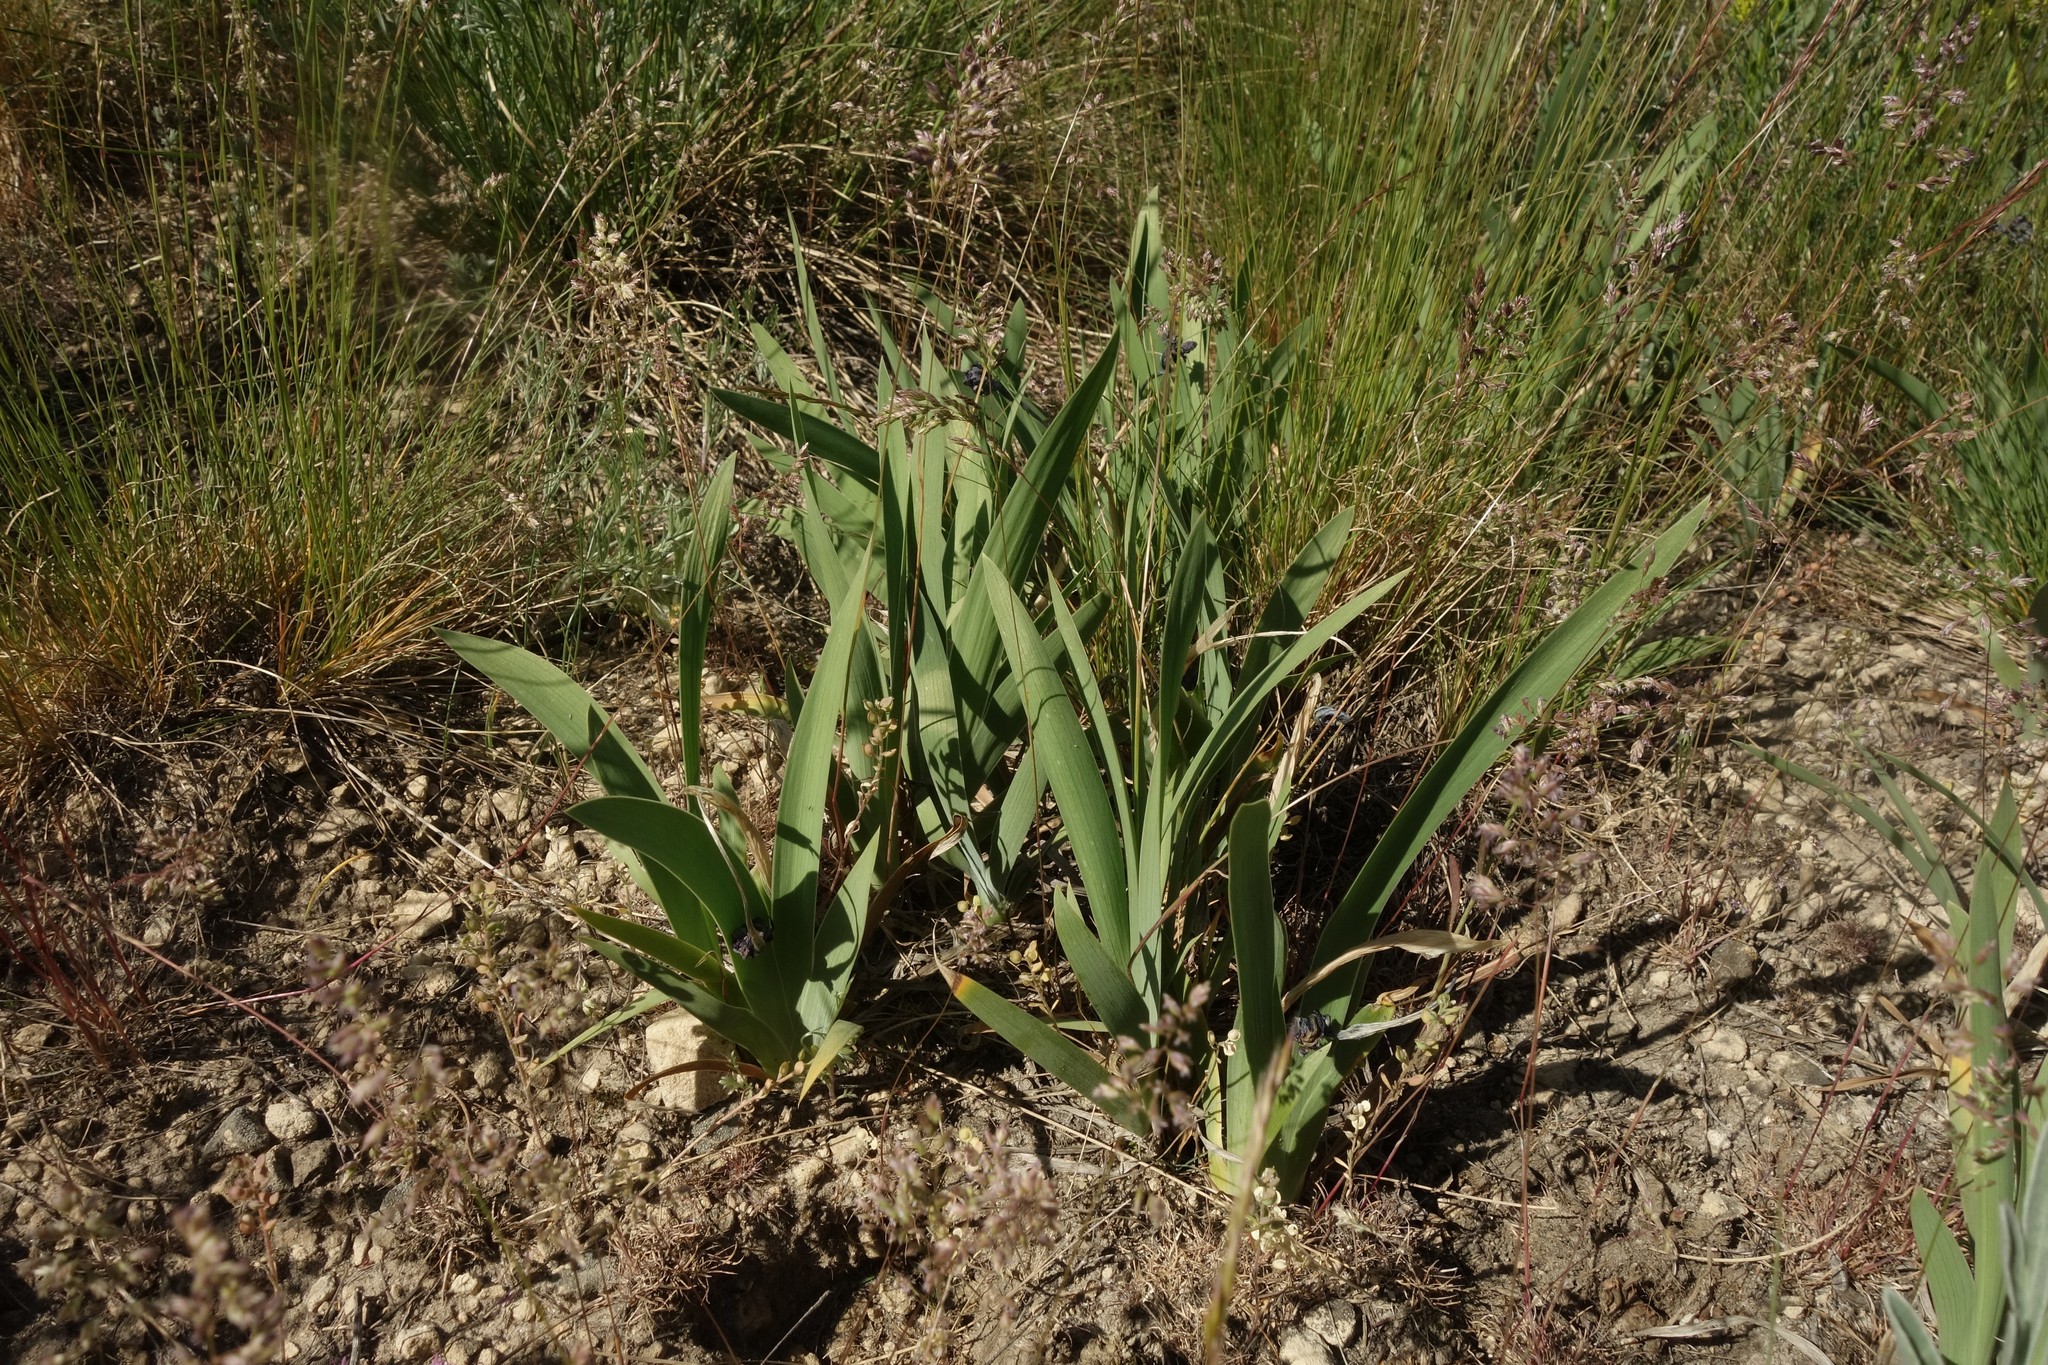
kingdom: Plantae
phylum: Tracheophyta
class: Liliopsida
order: Asparagales
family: Iridaceae
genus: Iris
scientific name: Iris pumila
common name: Dwarf iris
